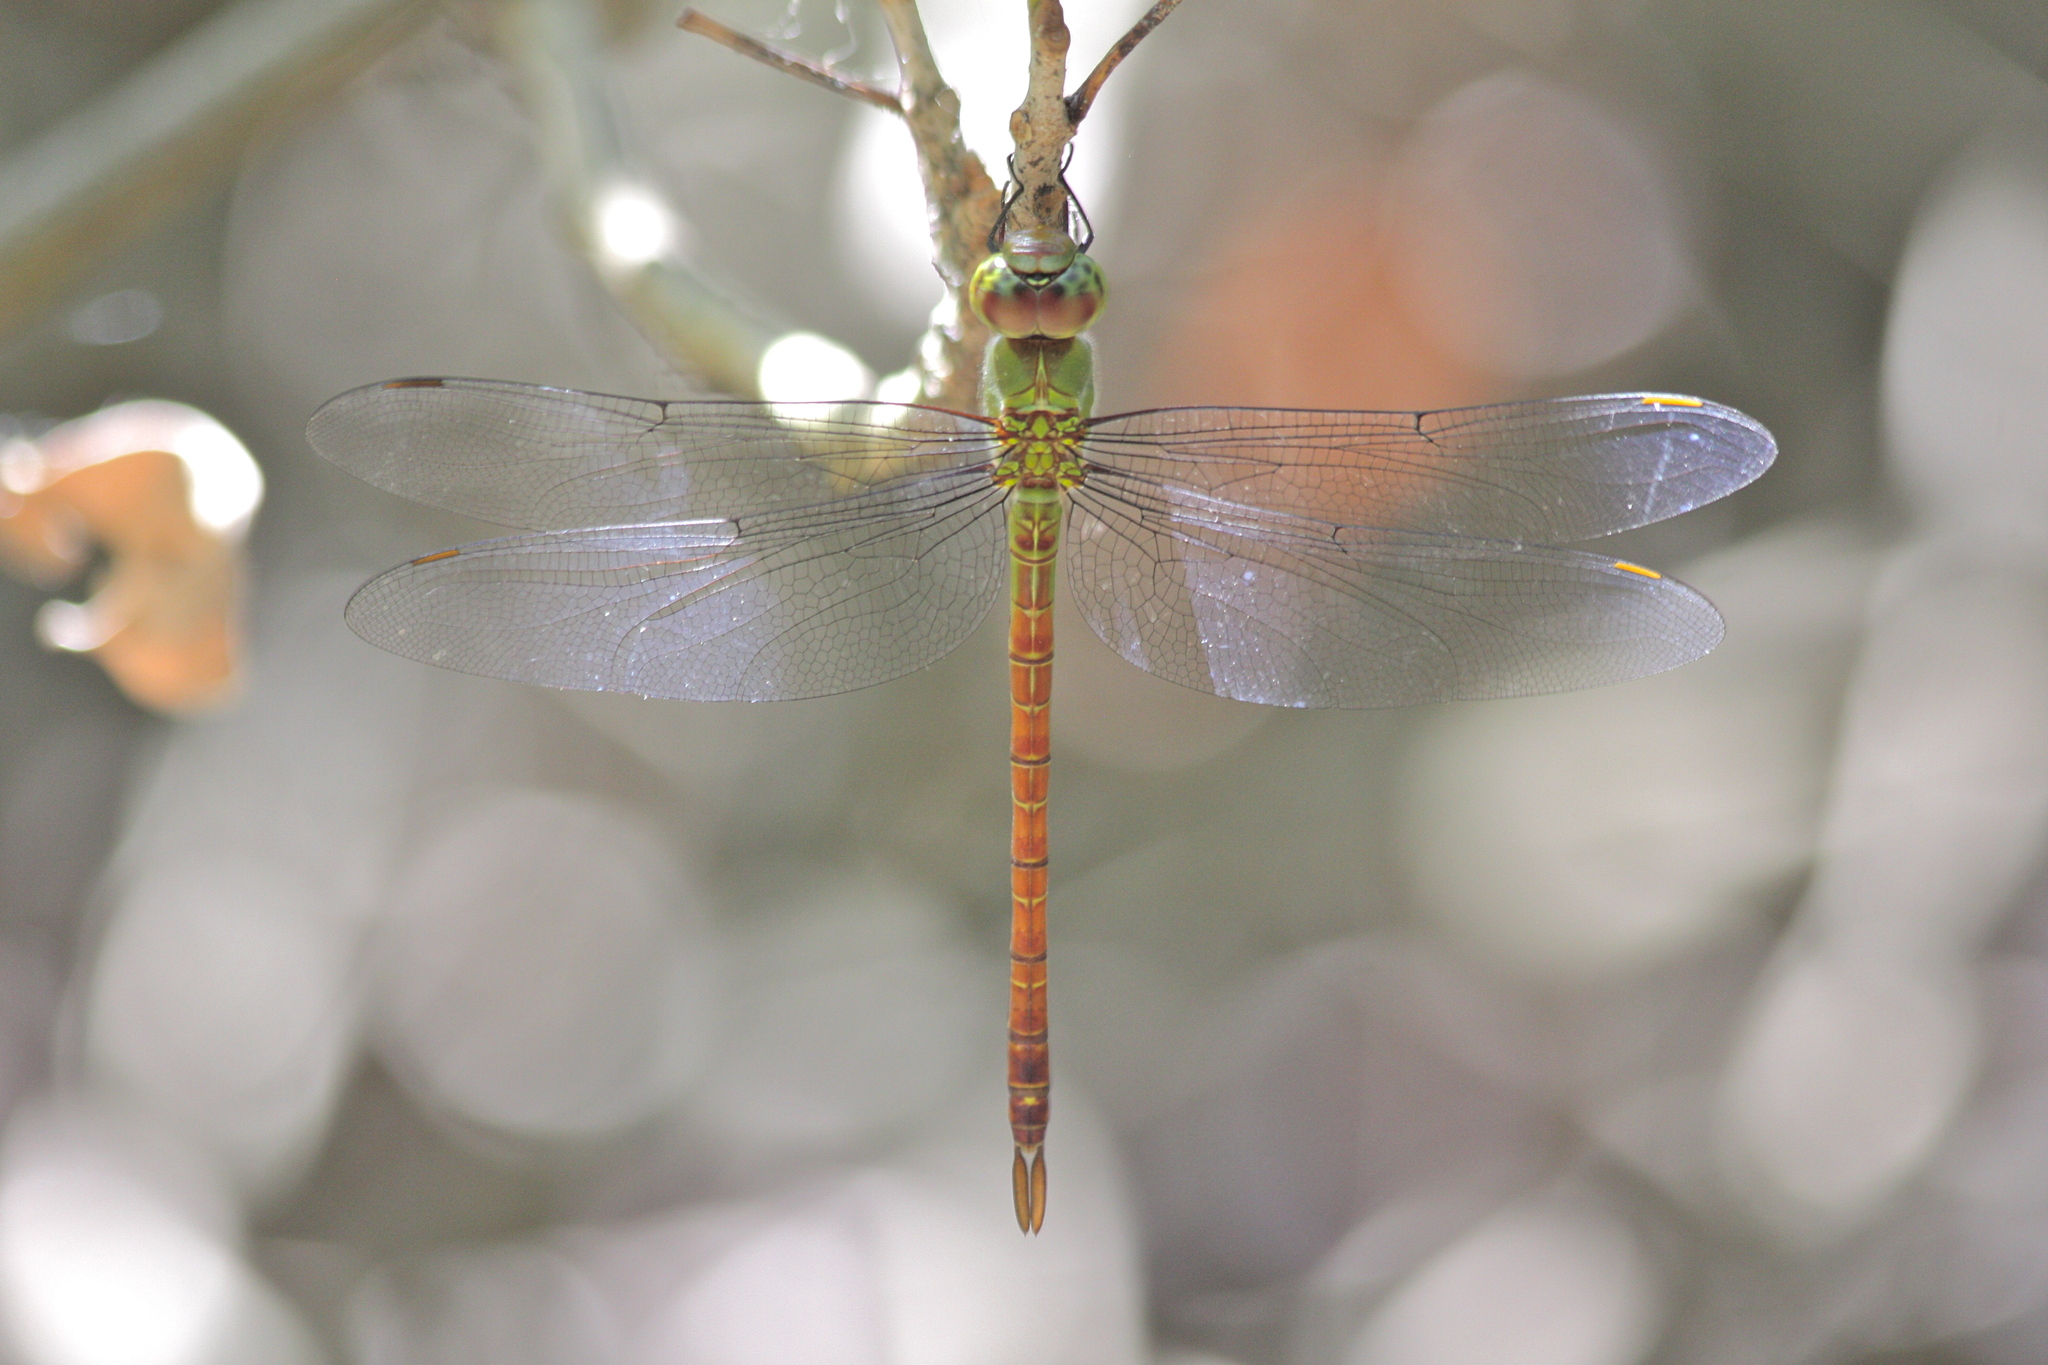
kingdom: Animalia
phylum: Arthropoda
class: Insecta
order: Odonata
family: Aeshnidae
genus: Coryphaeschna
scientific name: Coryphaeschna diapyra
